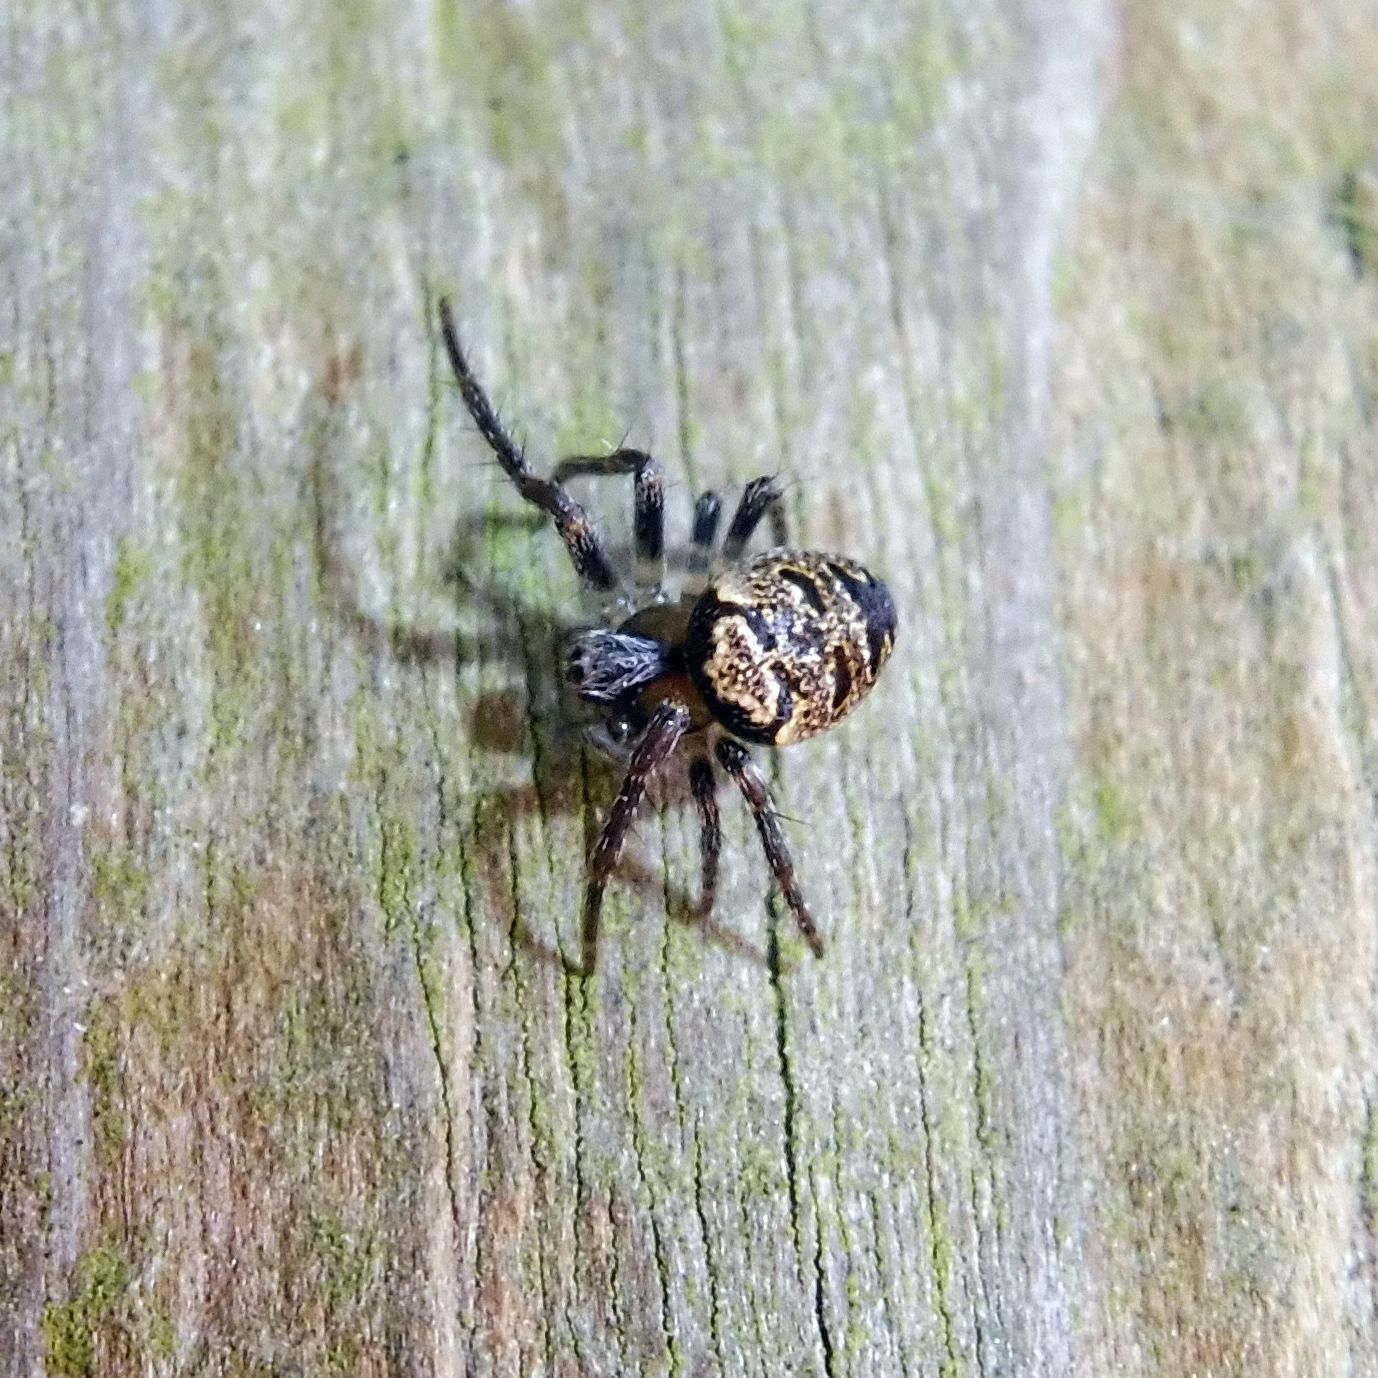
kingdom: Animalia
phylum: Arthropoda
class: Arachnida
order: Araneae
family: Araneidae
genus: Zilla
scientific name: Zilla diodia
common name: Zilla diodia
